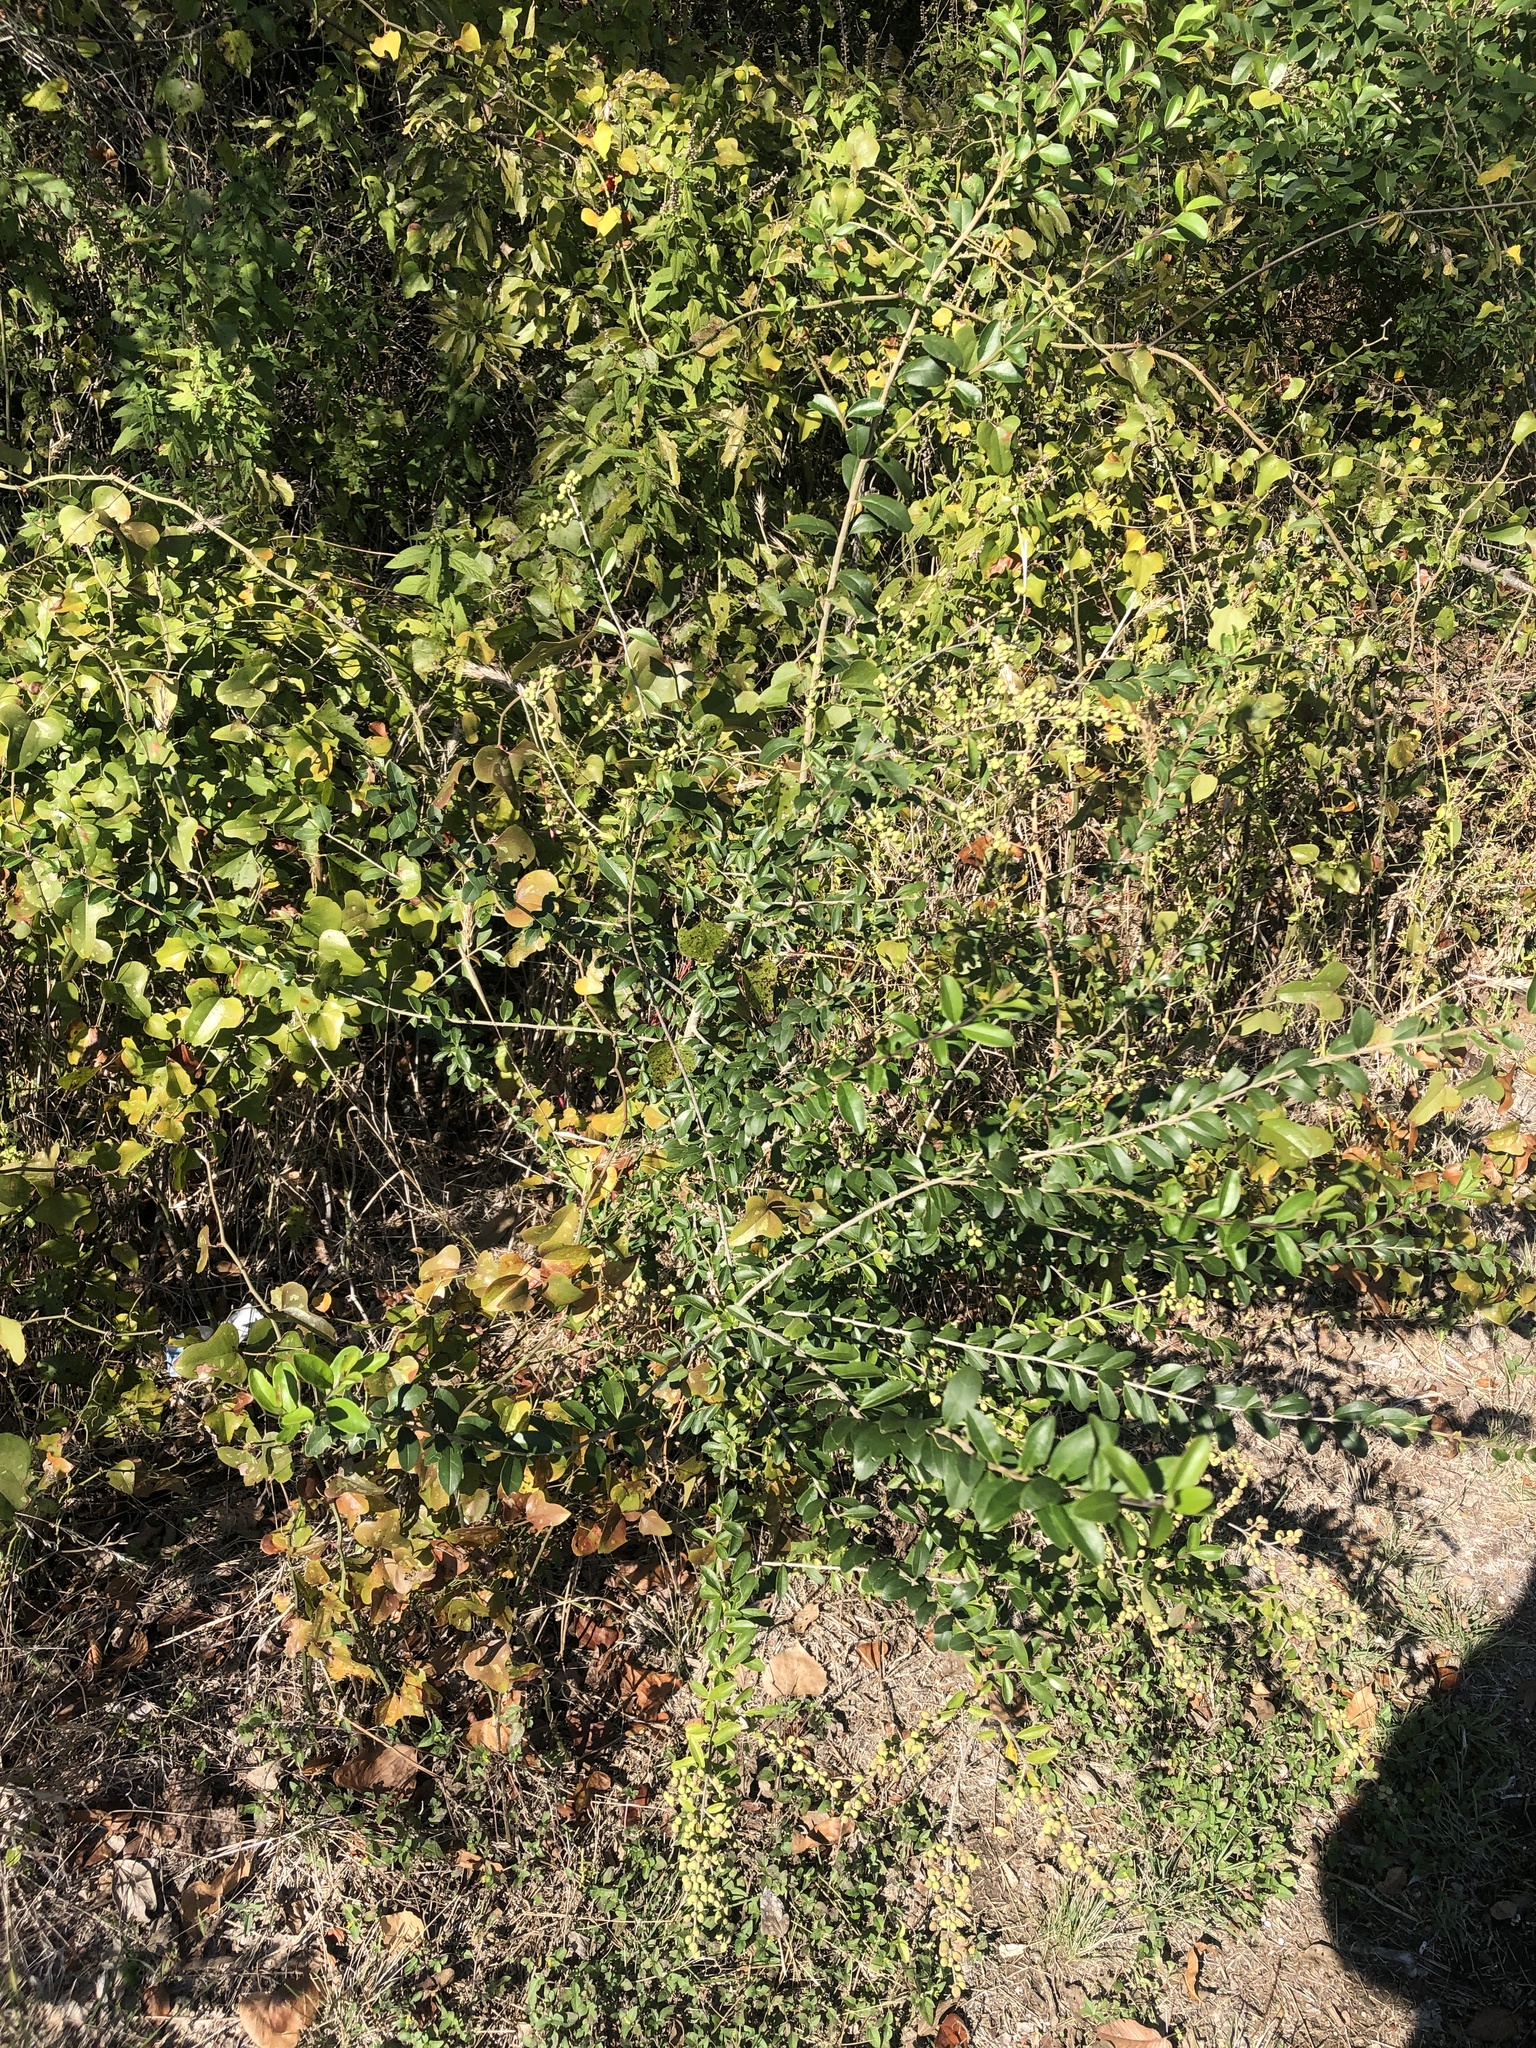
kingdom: Plantae
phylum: Tracheophyta
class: Magnoliopsida
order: Lamiales
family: Oleaceae
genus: Ligustrum
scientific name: Ligustrum quihoui
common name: Waxyleaf privet
